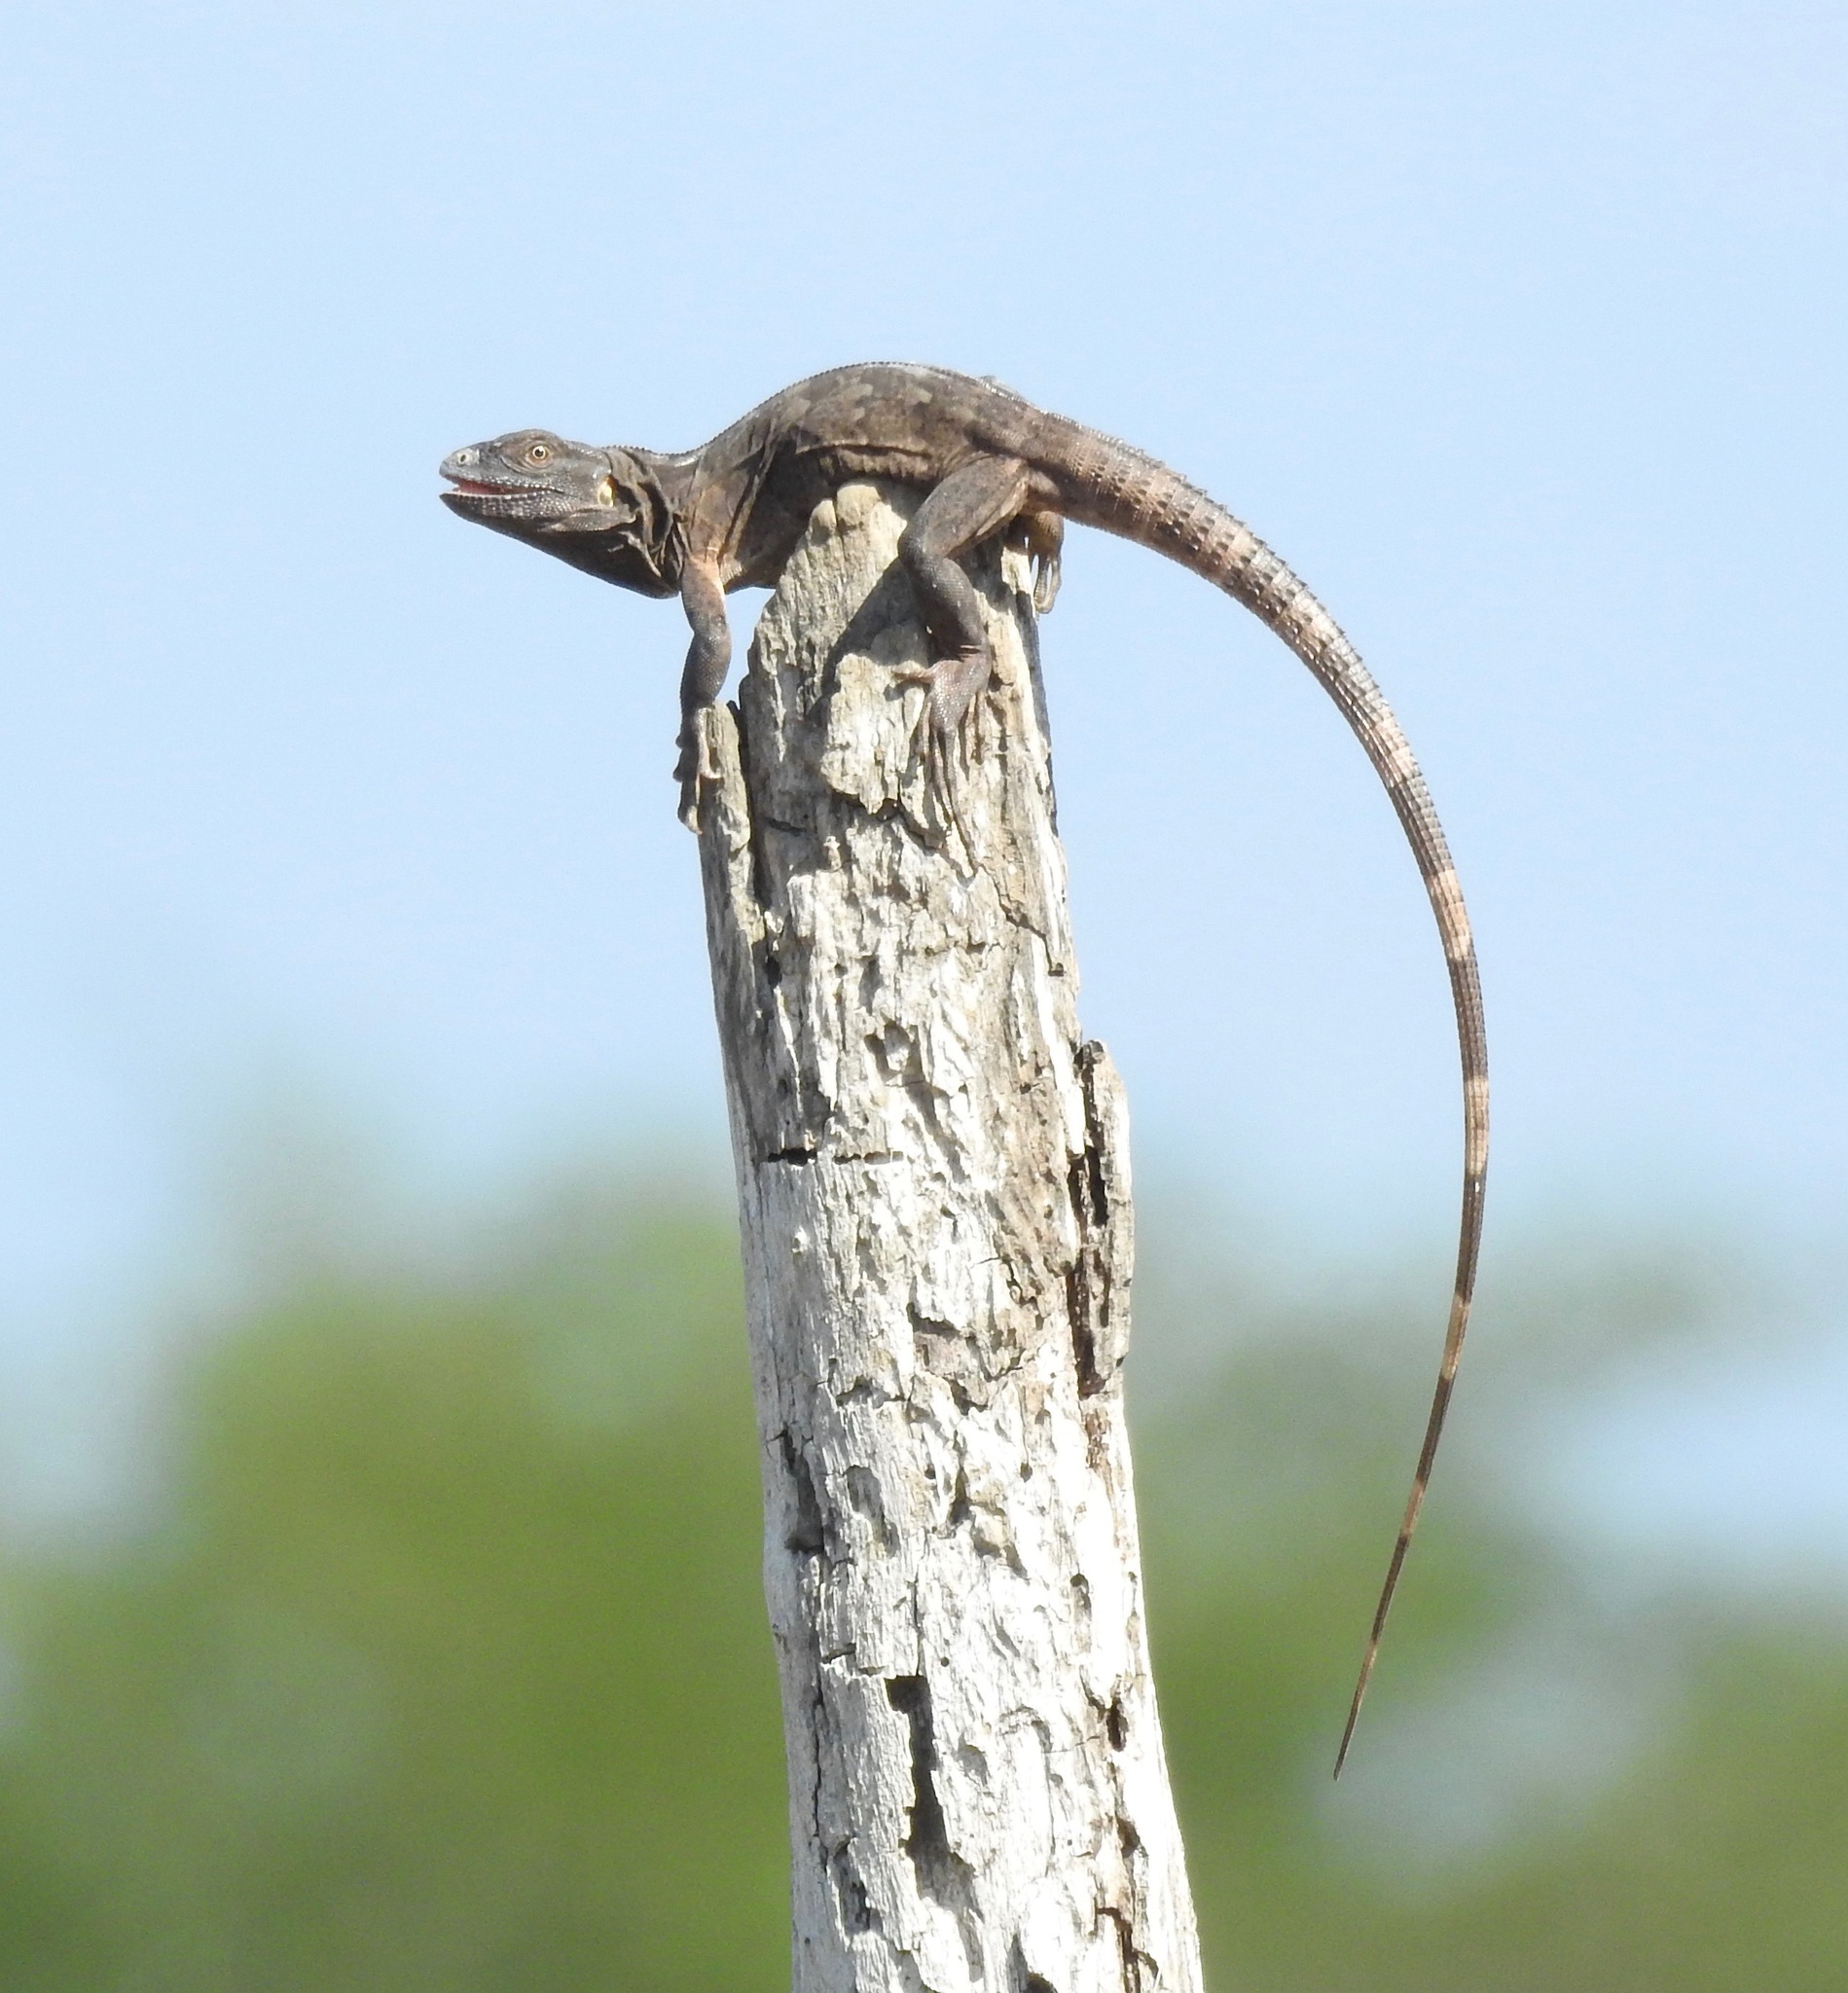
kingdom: Animalia
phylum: Chordata
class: Squamata
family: Iguanidae
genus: Ctenosaura
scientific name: Ctenosaura pectinata
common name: Guerreran spiny-tailed iguana
